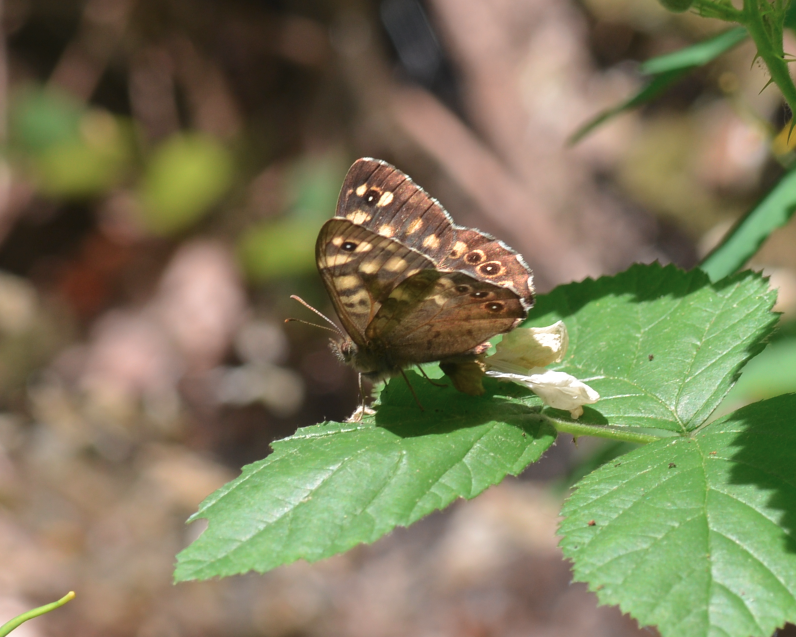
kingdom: Animalia
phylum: Arthropoda
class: Insecta
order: Lepidoptera
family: Nymphalidae
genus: Pararge
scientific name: Pararge aegeria
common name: Speckled wood
